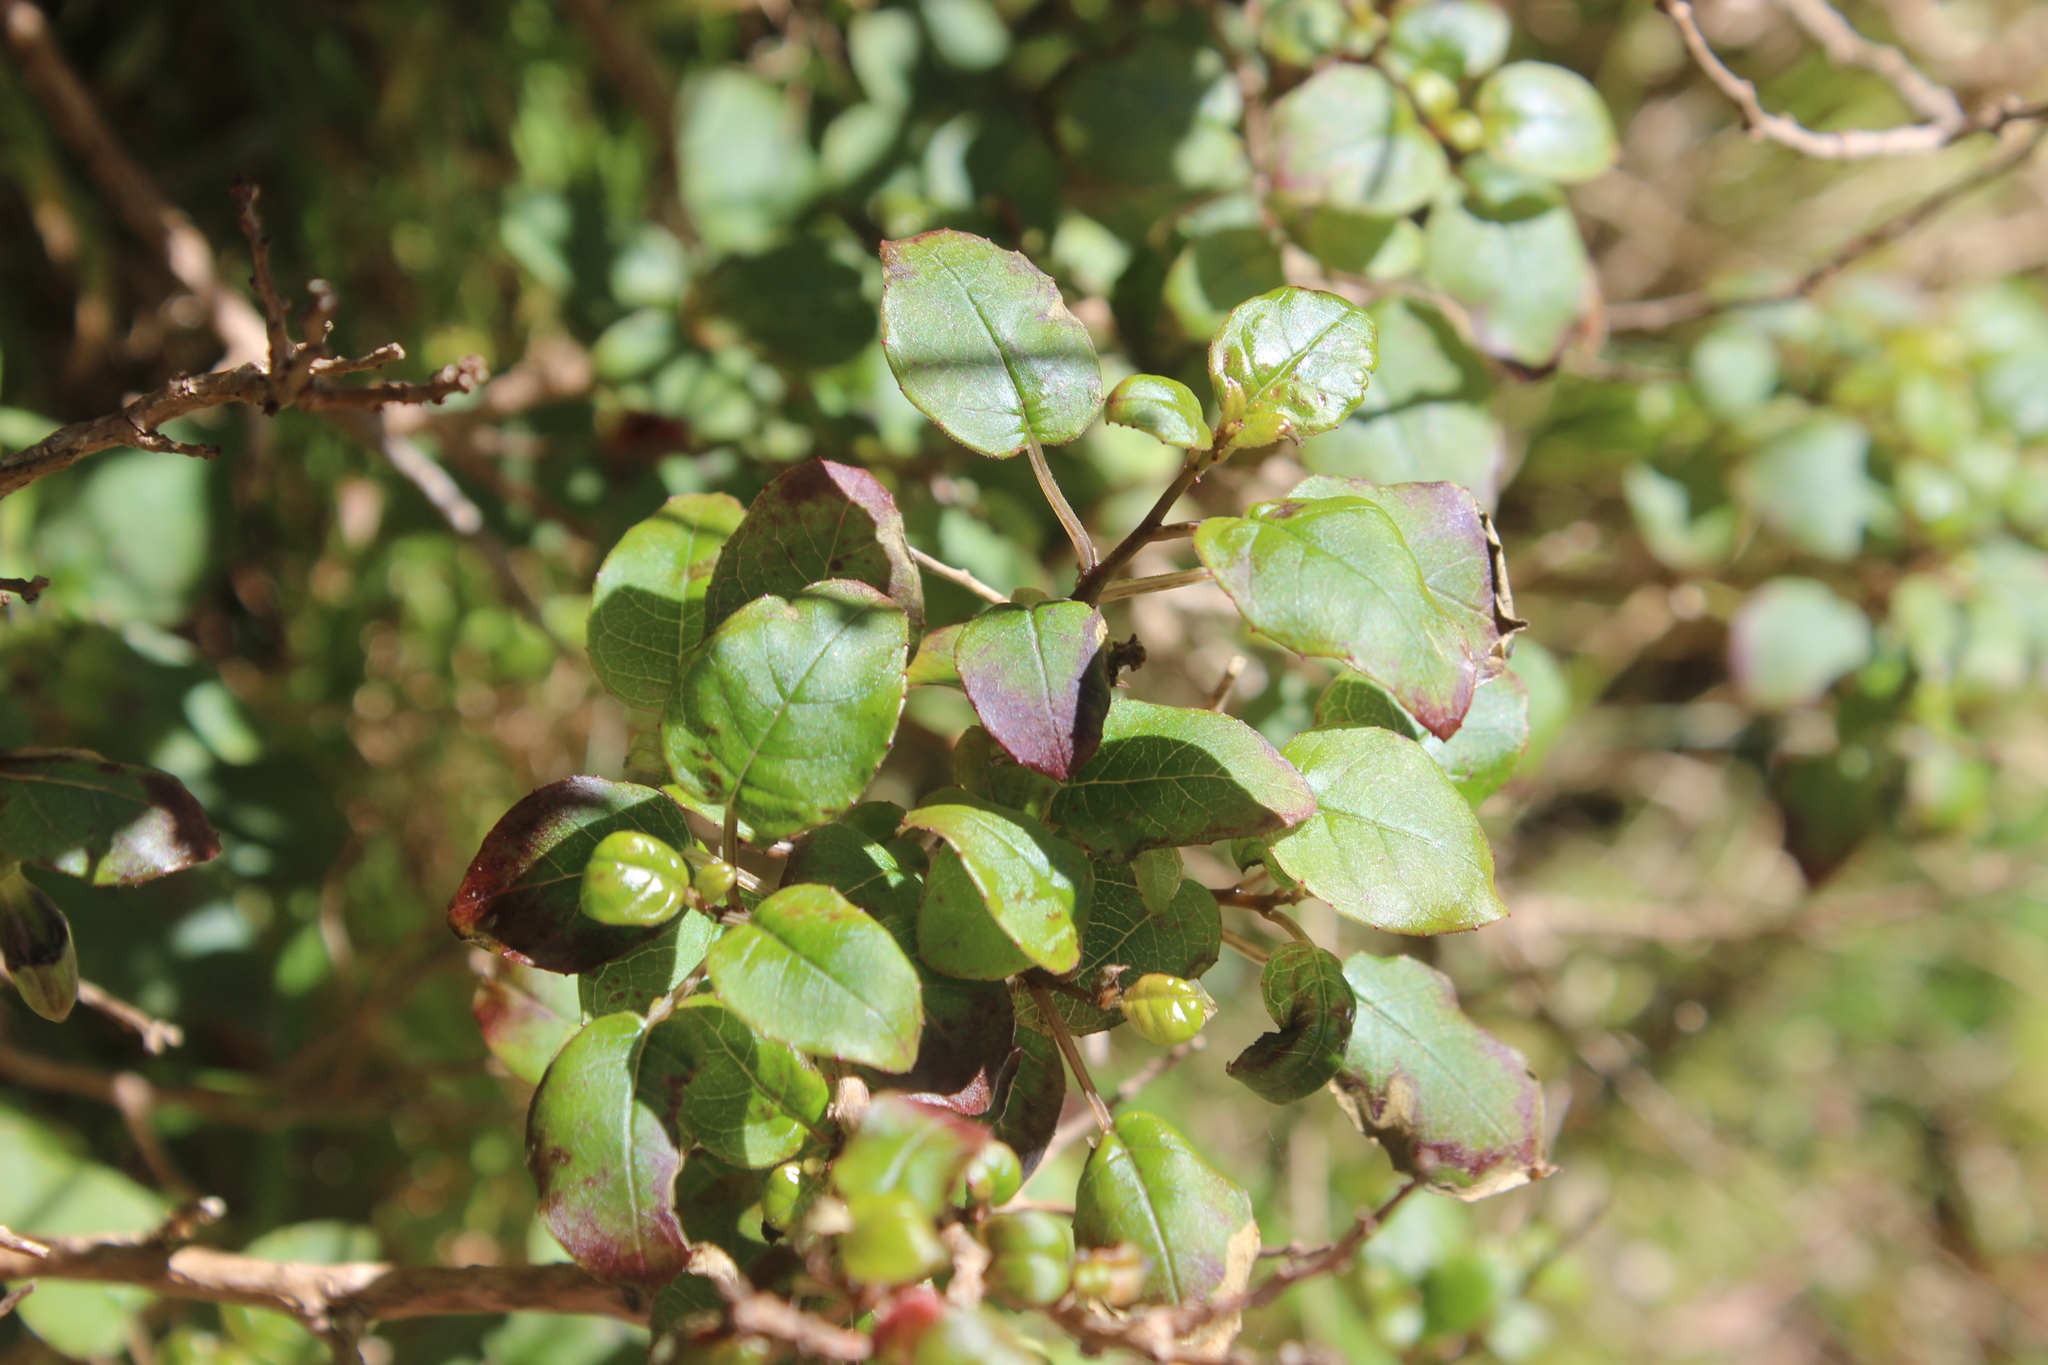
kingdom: Plantae
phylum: Tracheophyta
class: Magnoliopsida
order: Myrtales
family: Onagraceae
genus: Fuchsia
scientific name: Fuchsia colensoi
